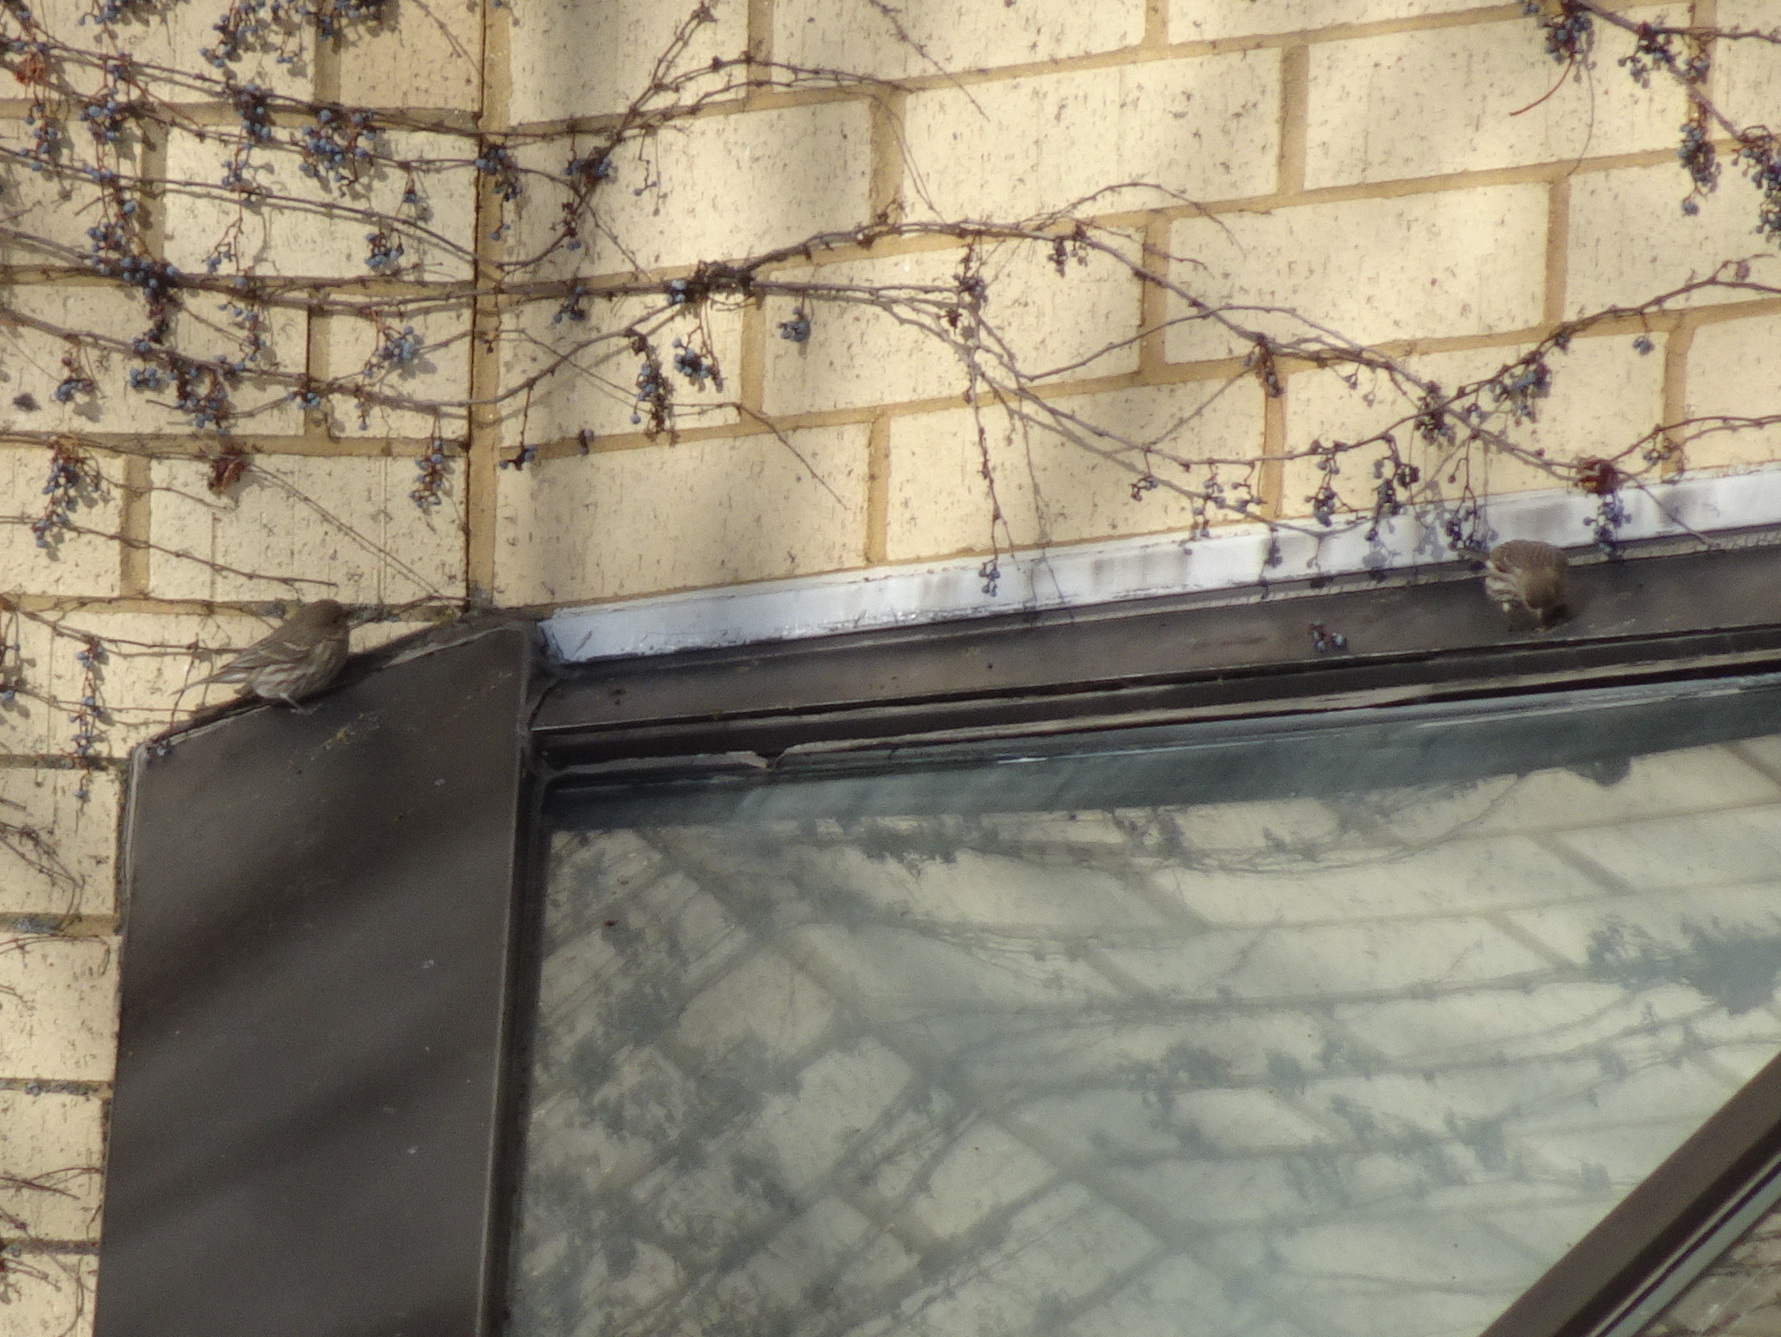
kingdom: Animalia
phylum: Chordata
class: Aves
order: Passeriformes
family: Fringillidae
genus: Haemorhous
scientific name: Haemorhous mexicanus
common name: House finch
